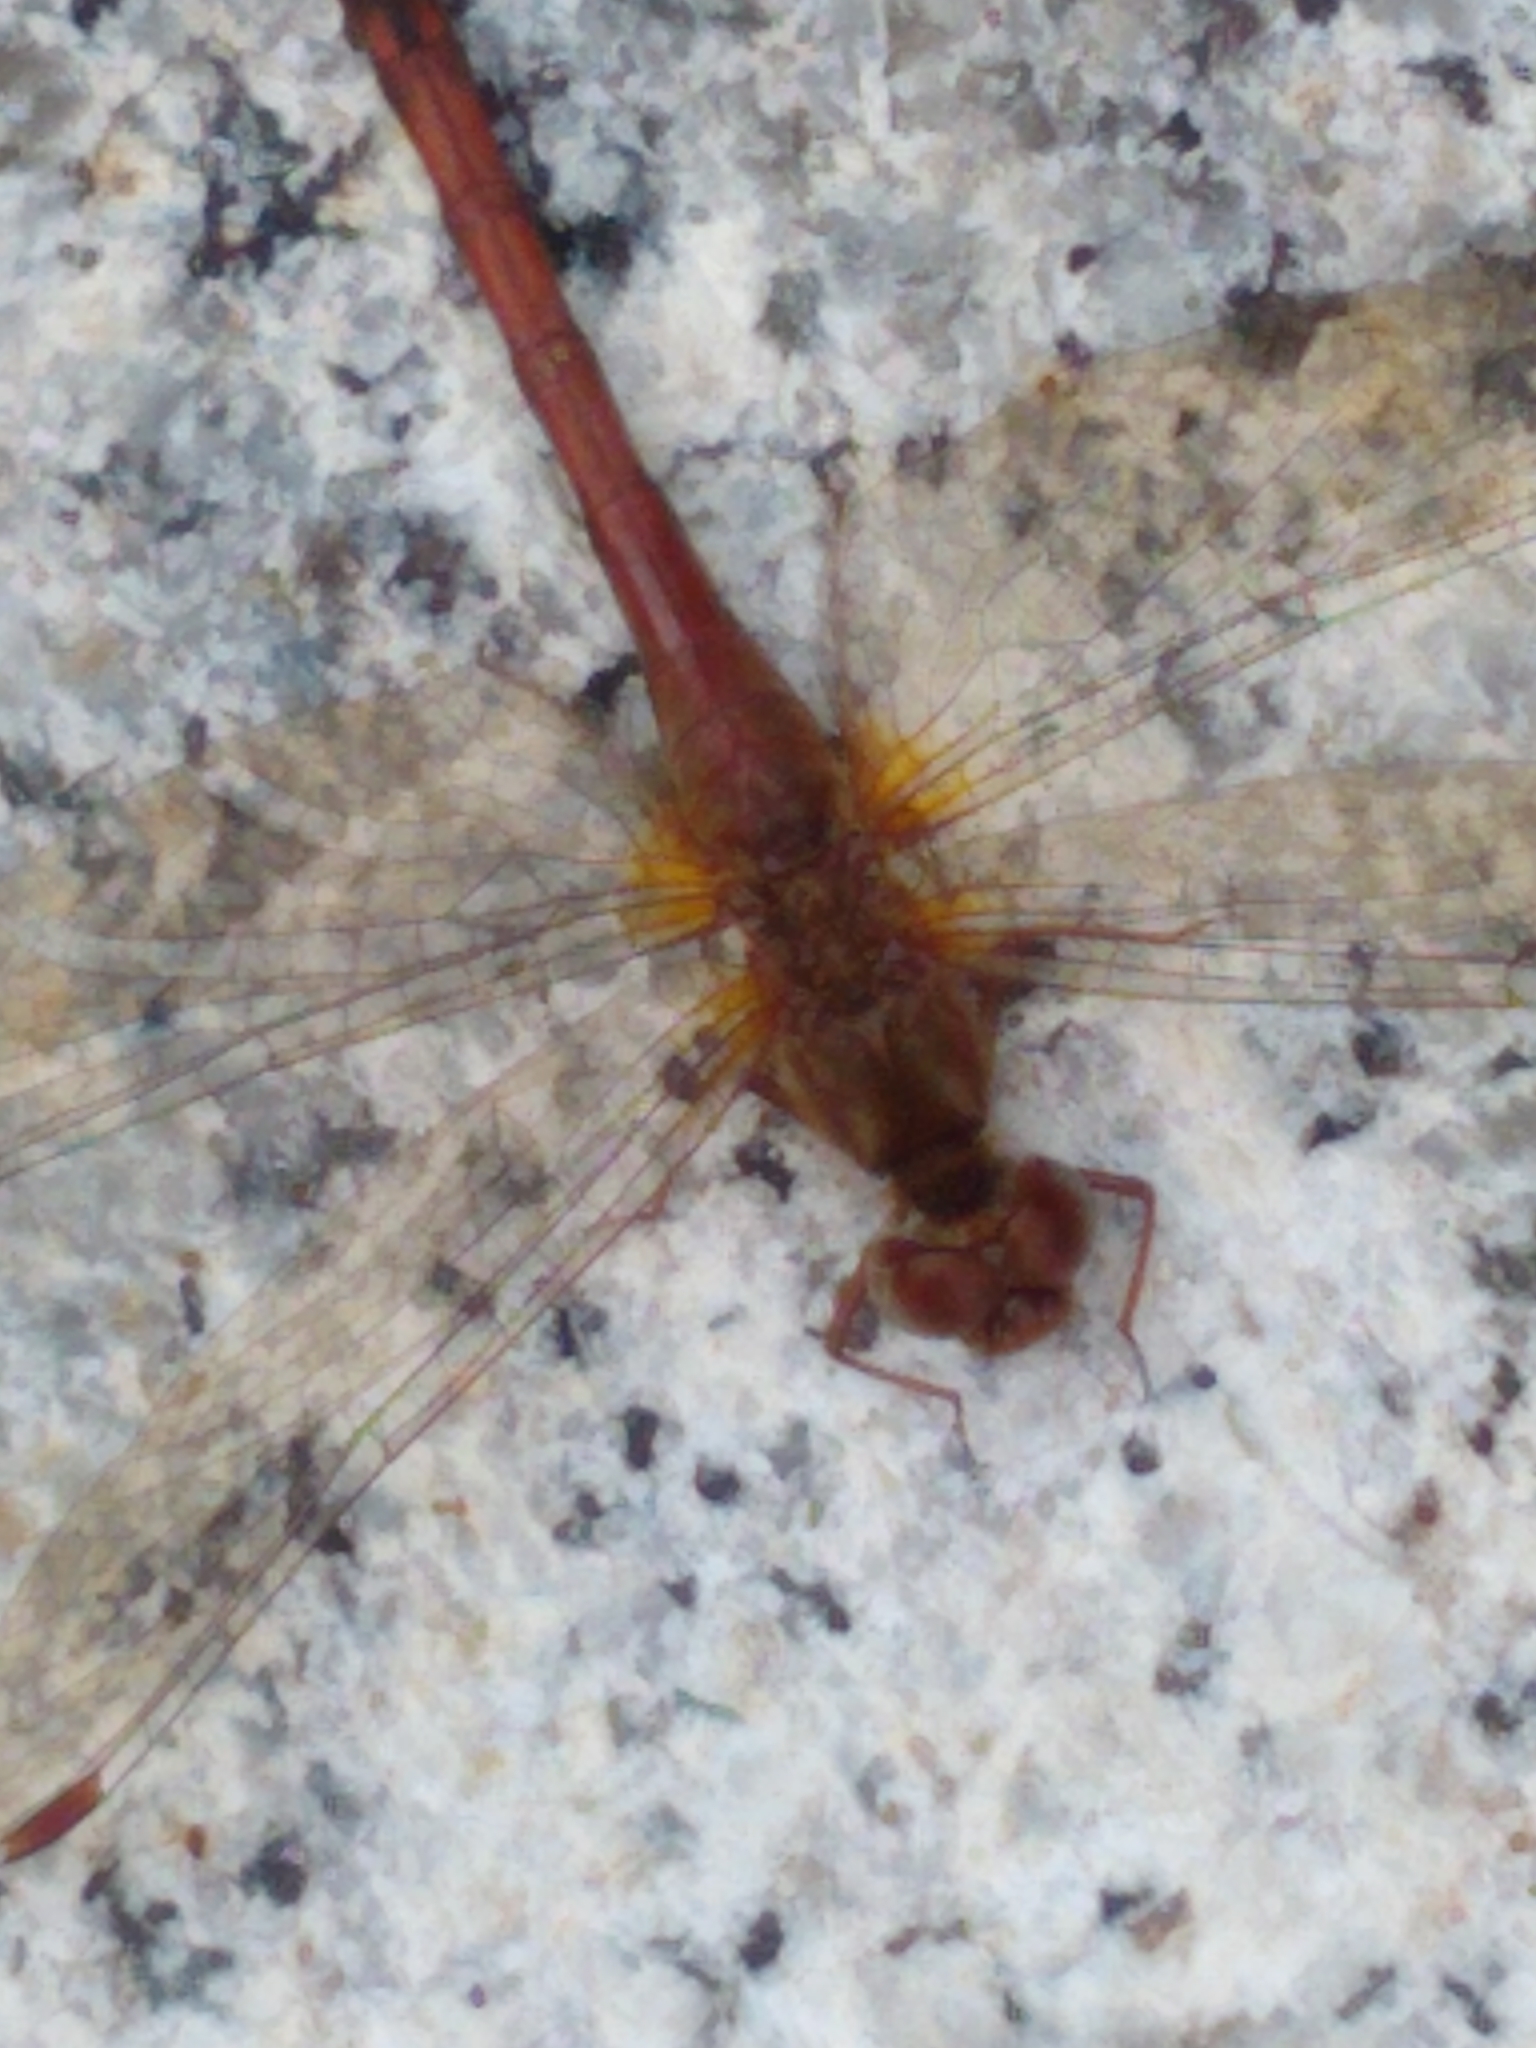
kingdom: Animalia
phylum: Arthropoda
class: Insecta
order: Odonata
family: Libellulidae
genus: Sympetrum
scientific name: Sympetrum vicinum
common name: Autumn meadowhawk
